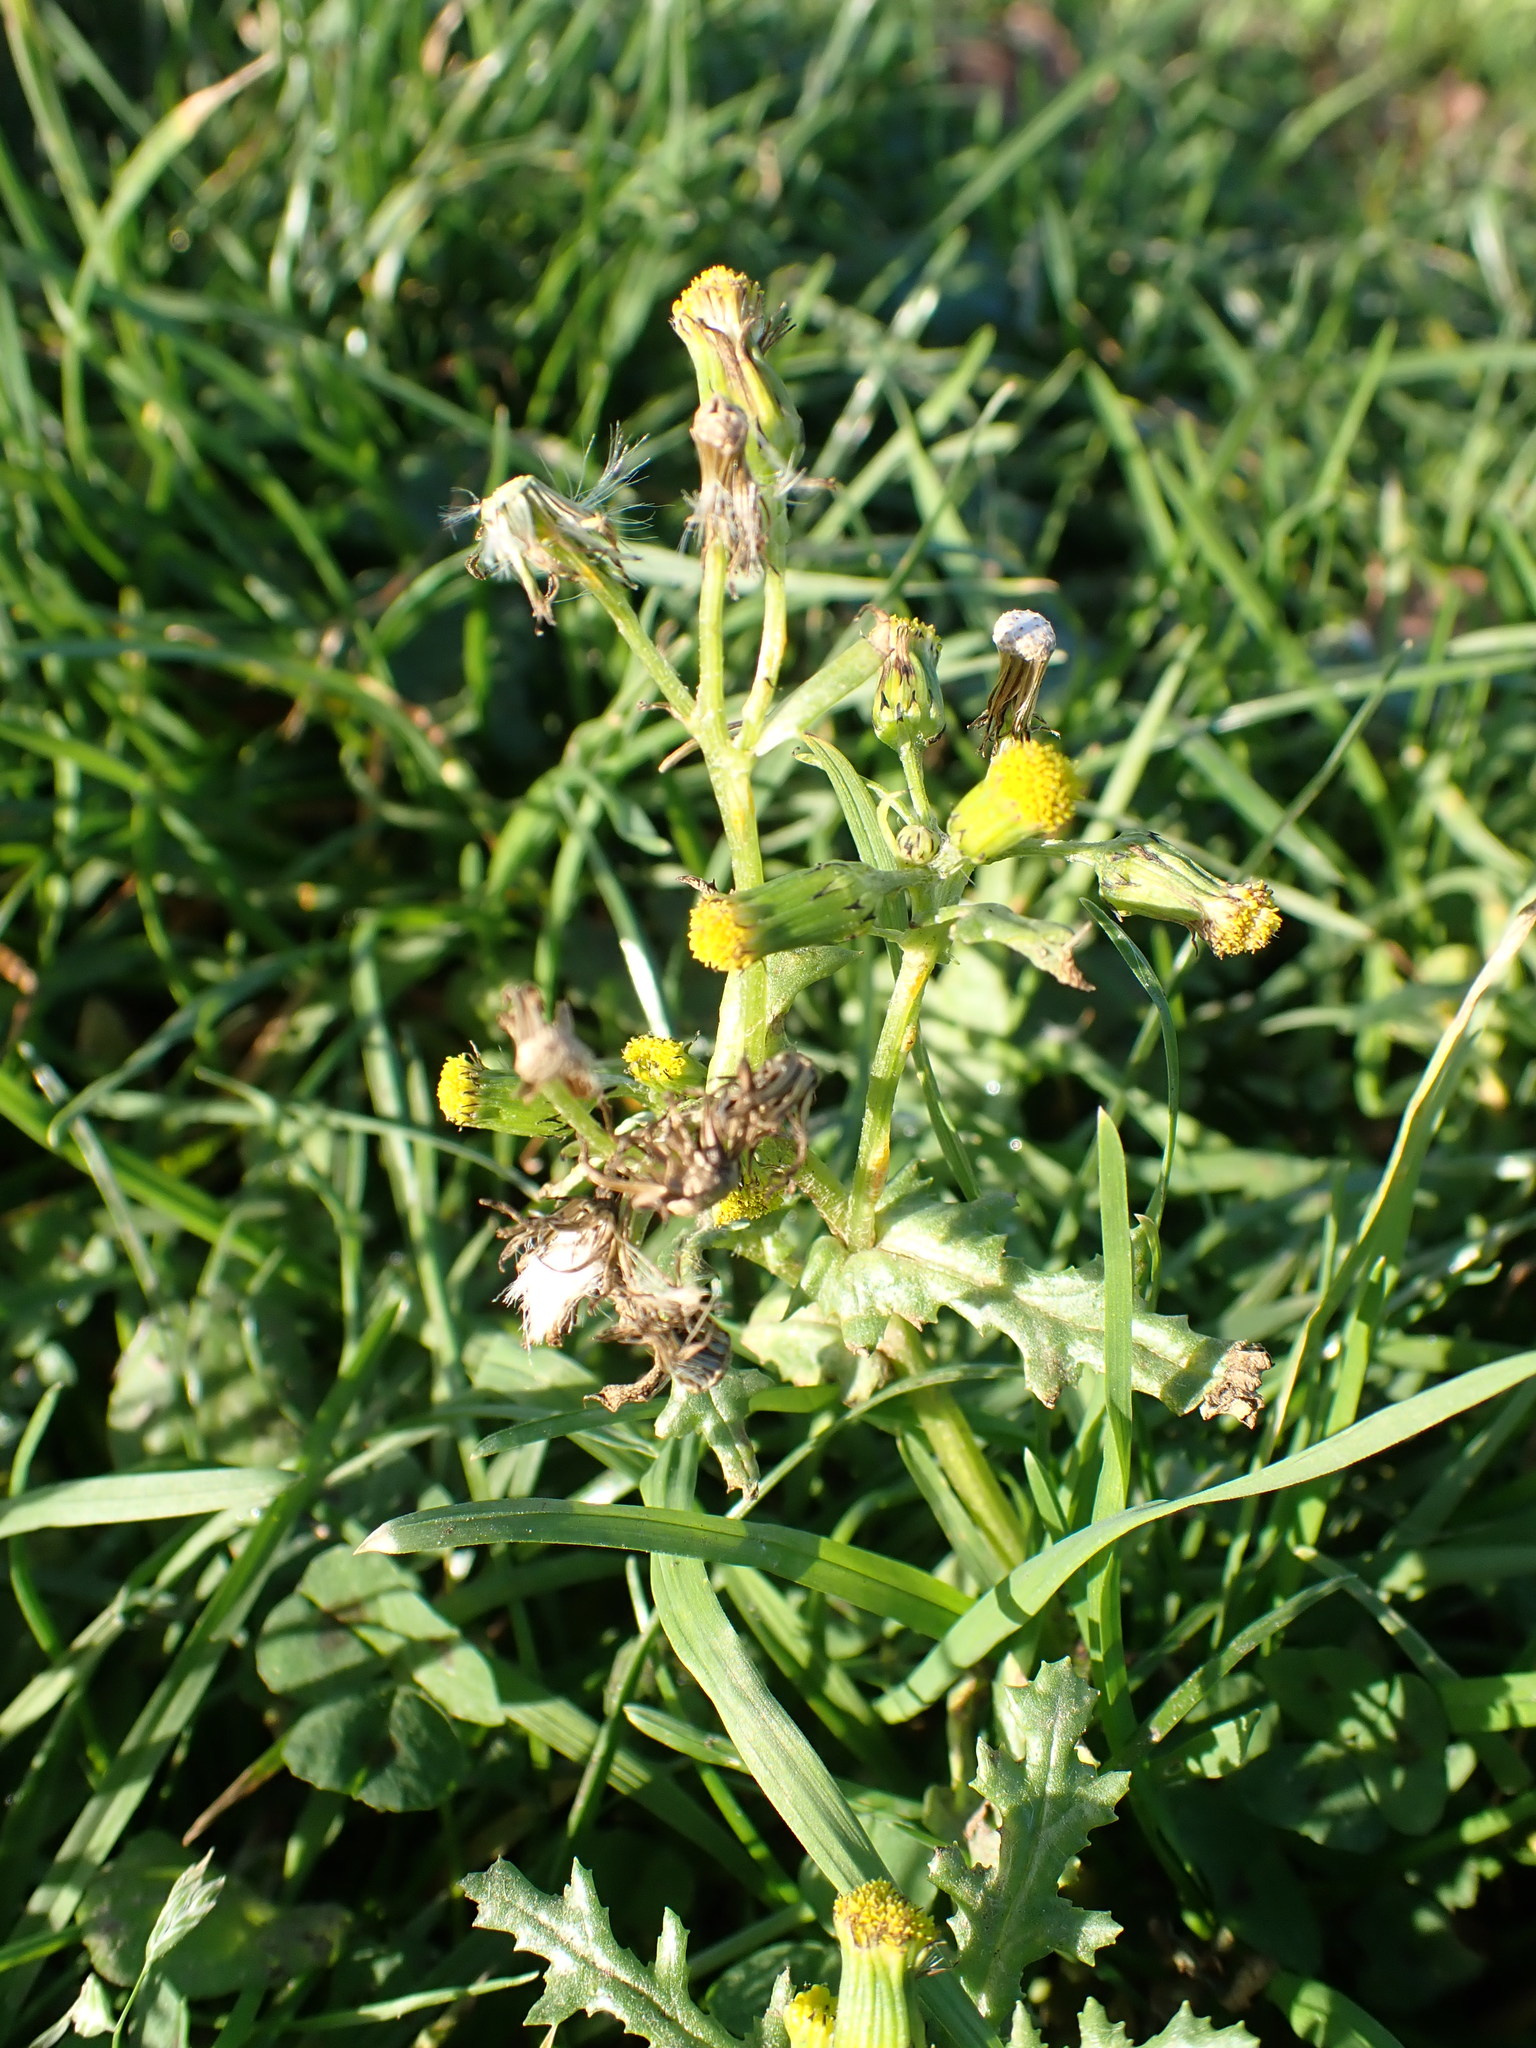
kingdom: Plantae
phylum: Tracheophyta
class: Magnoliopsida
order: Asterales
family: Asteraceae
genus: Senecio
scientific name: Senecio vulgaris
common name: Old-man-in-the-spring
